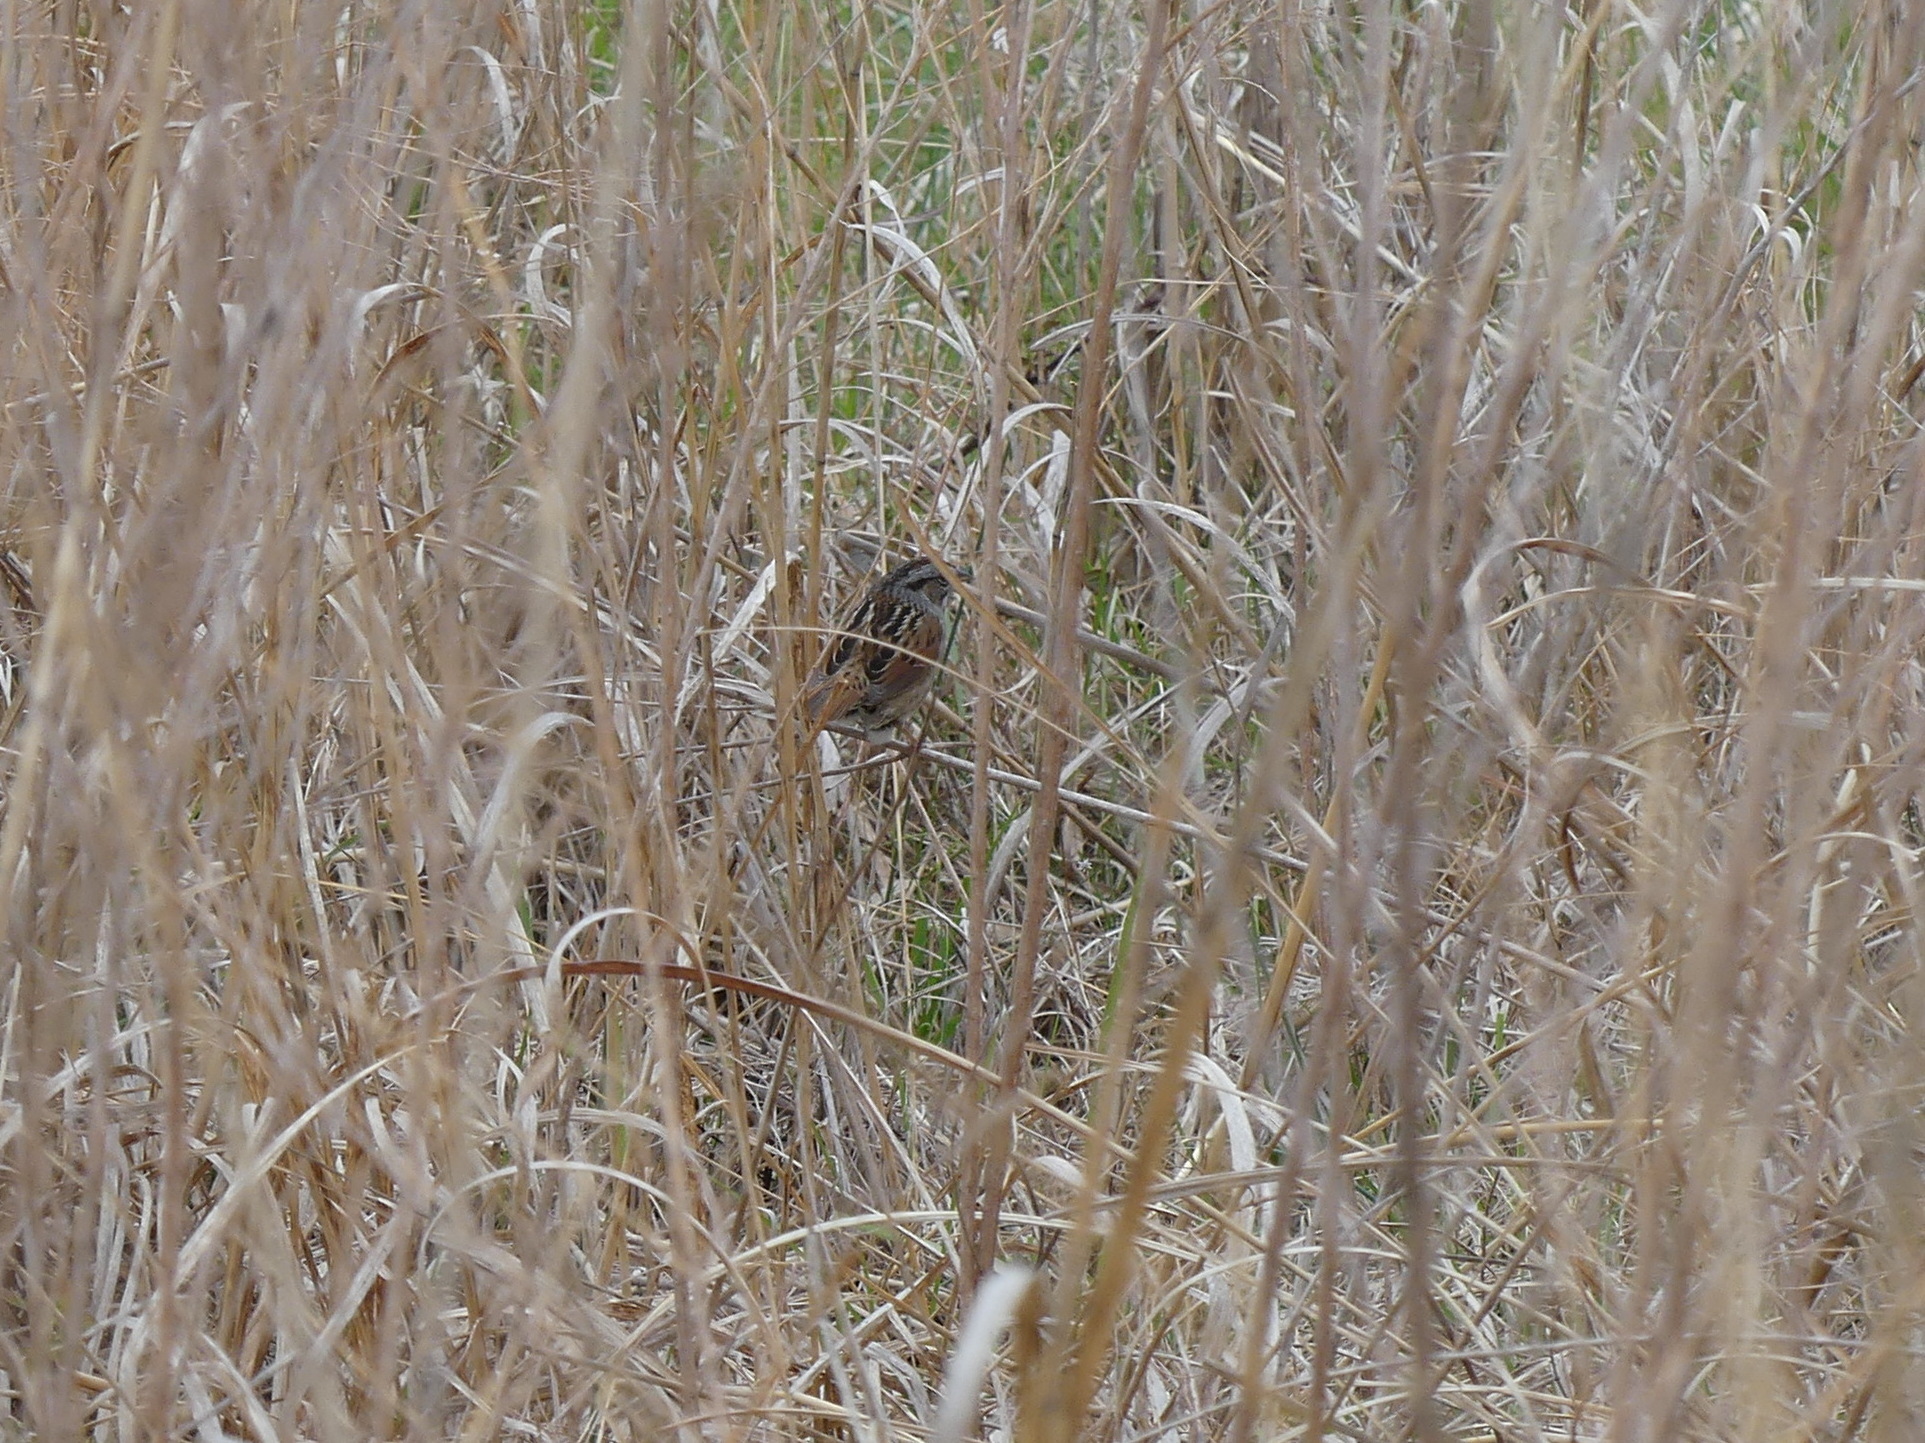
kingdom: Animalia
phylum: Chordata
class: Aves
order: Passeriformes
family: Passerellidae
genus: Melospiza
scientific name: Melospiza georgiana
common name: Swamp sparrow
